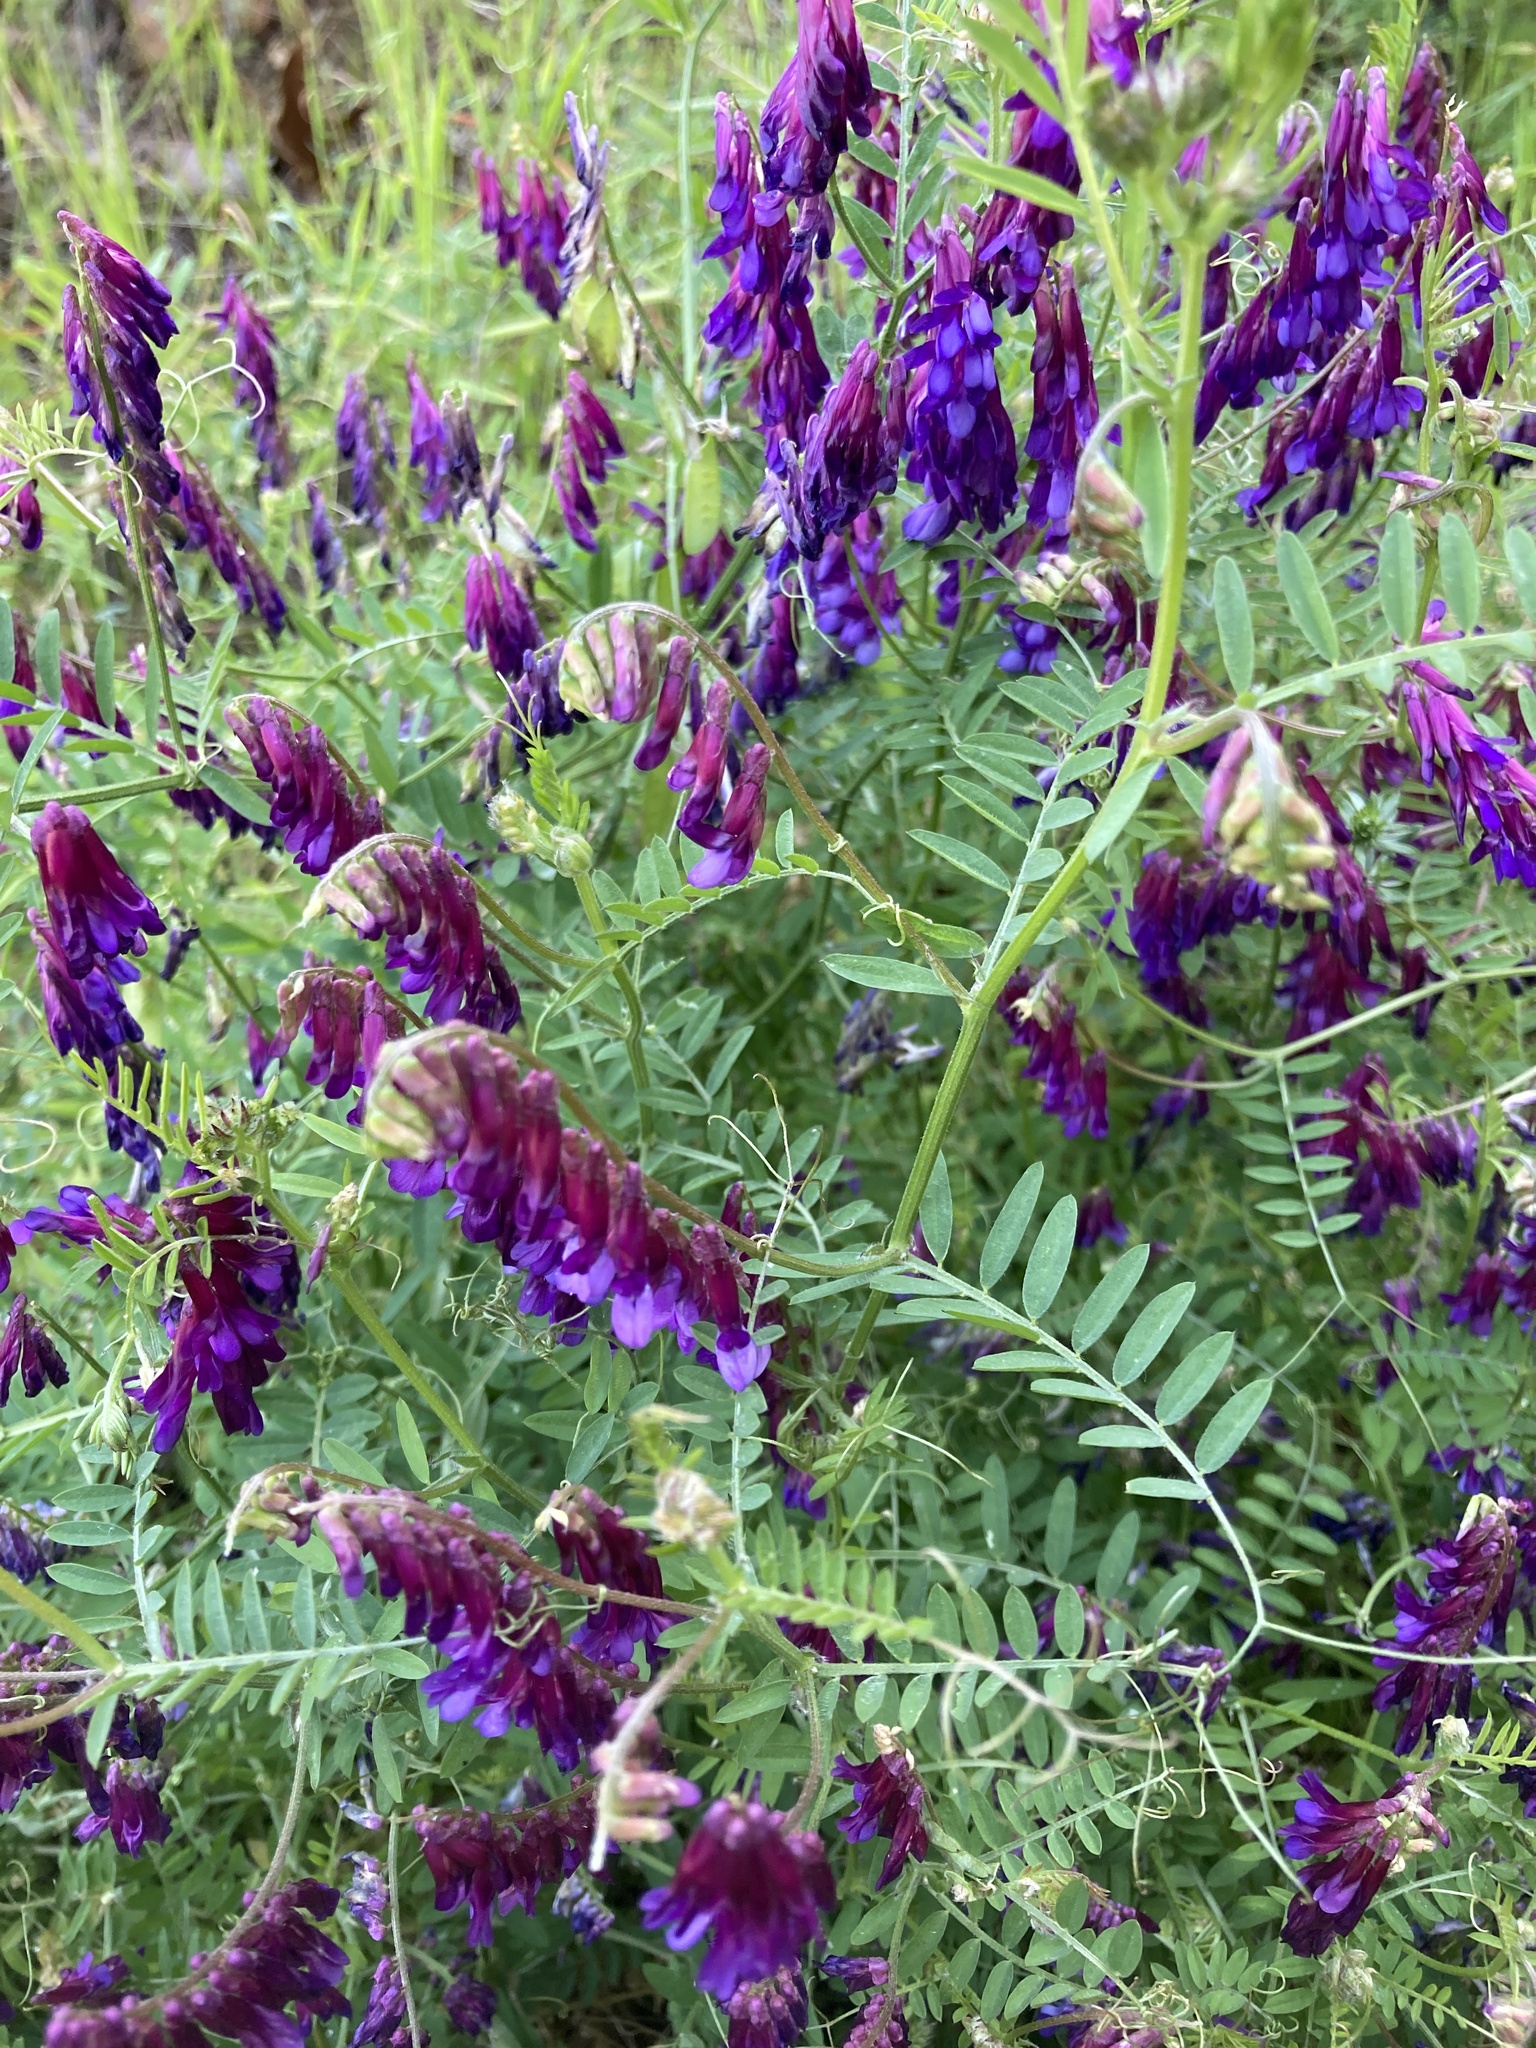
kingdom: Plantae
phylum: Tracheophyta
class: Magnoliopsida
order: Fabales
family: Fabaceae
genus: Vicia
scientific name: Vicia villosa
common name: Fodder vetch
